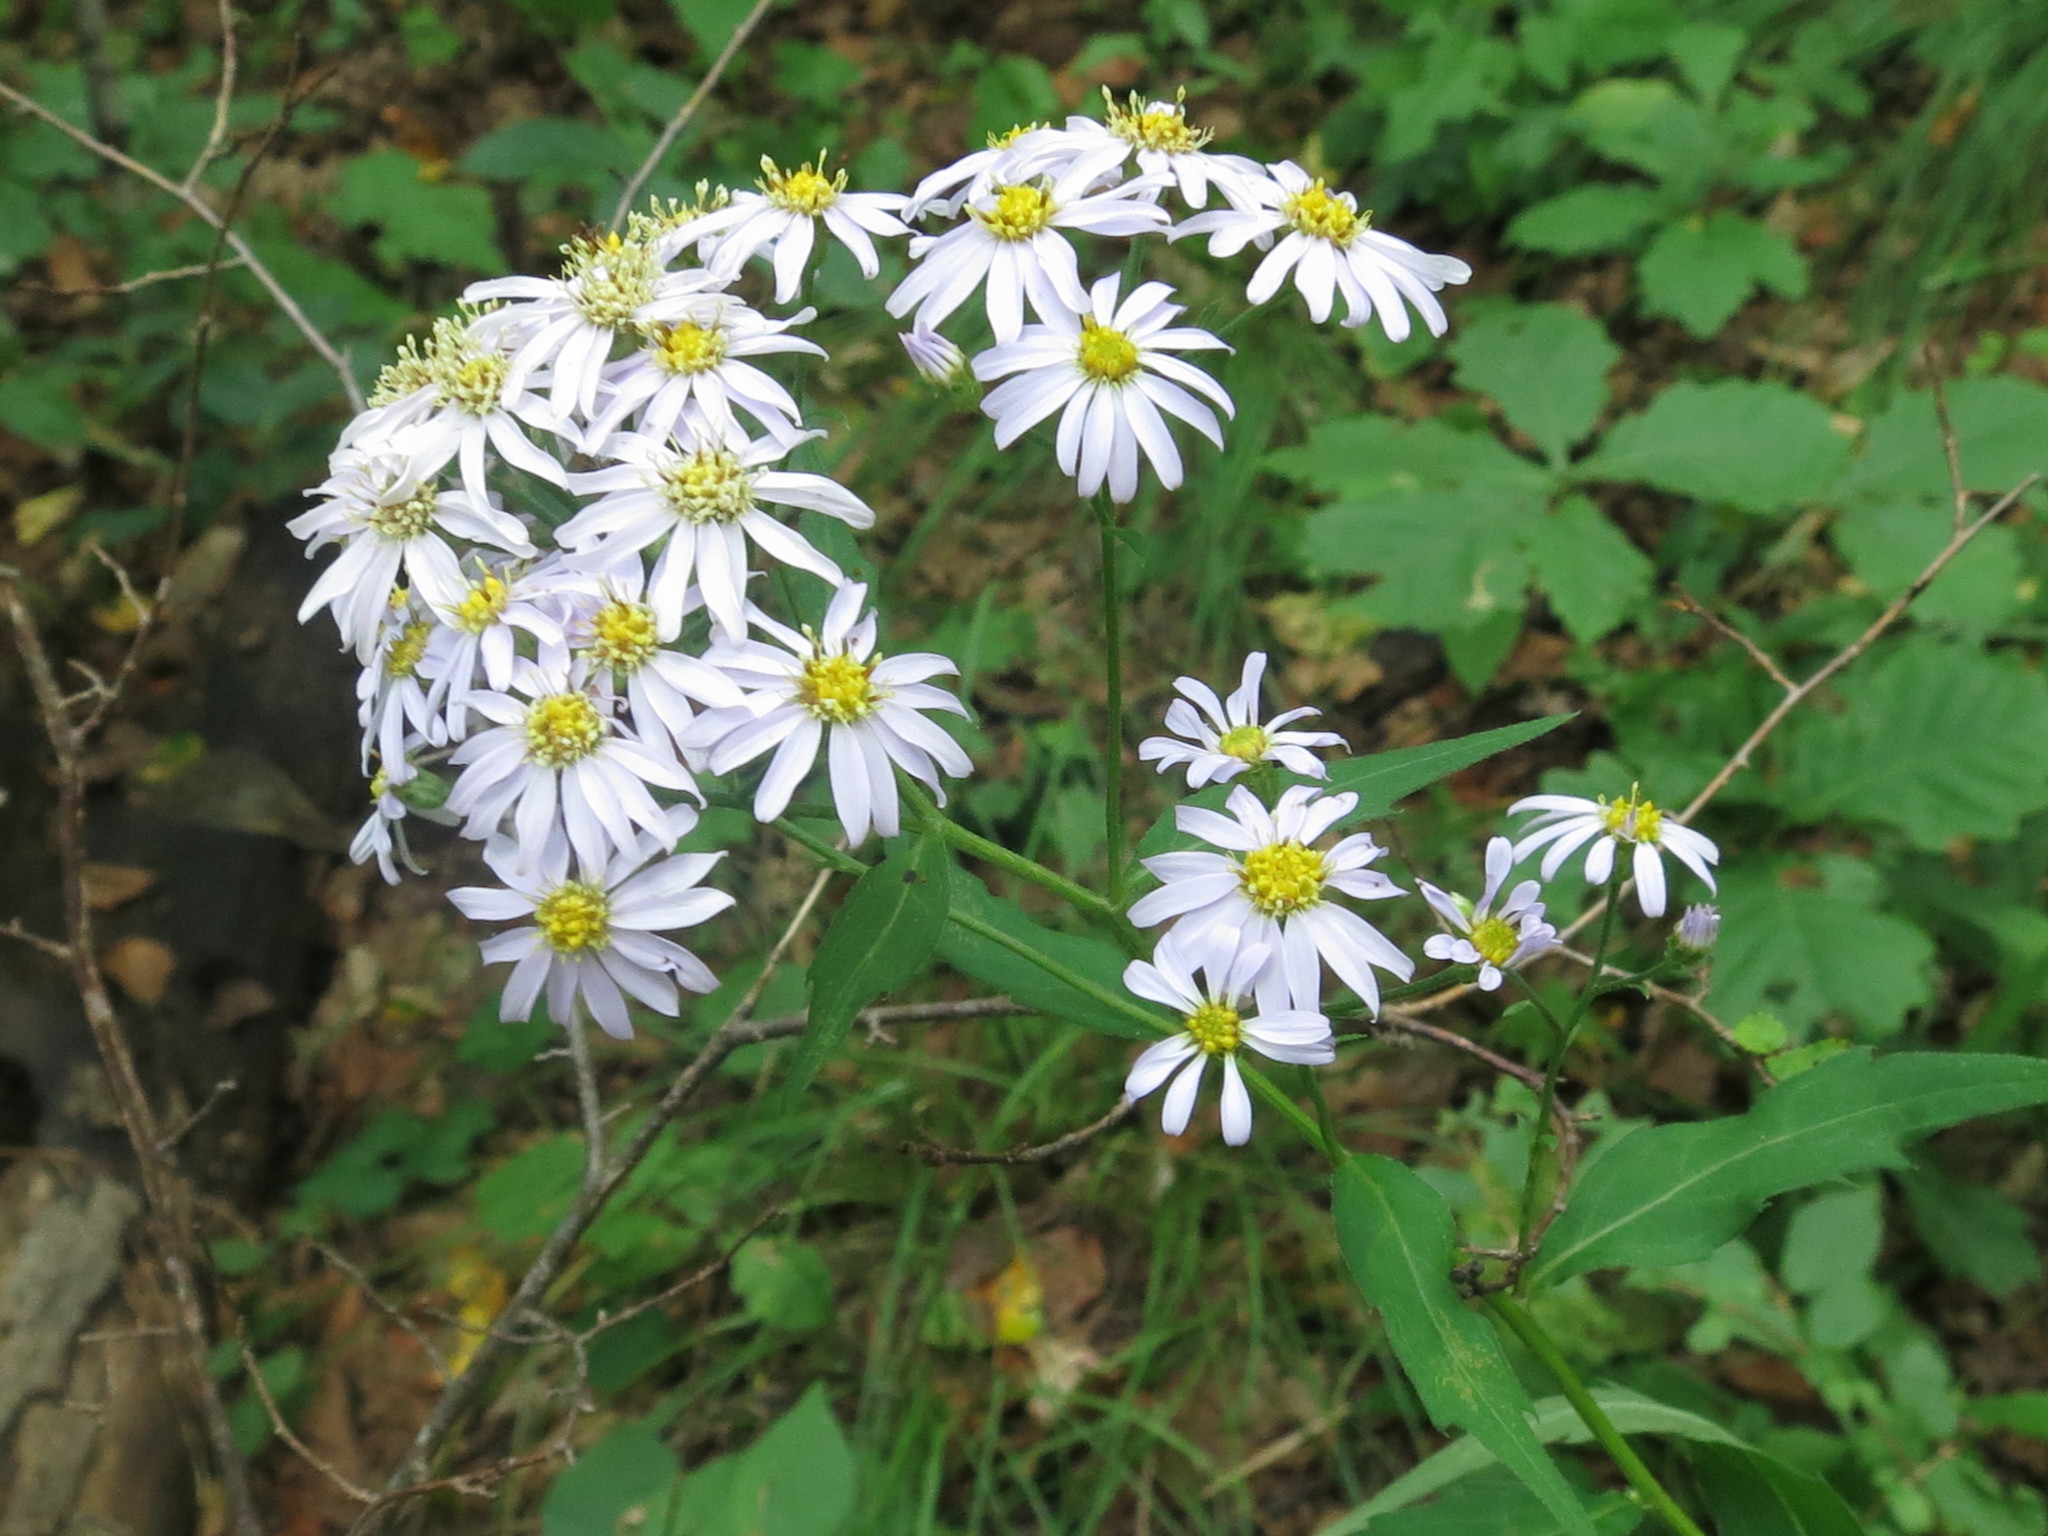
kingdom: Plantae
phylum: Tracheophyta
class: Magnoliopsida
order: Asterales
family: Asteraceae
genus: Aster
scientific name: Aster ageratoides
